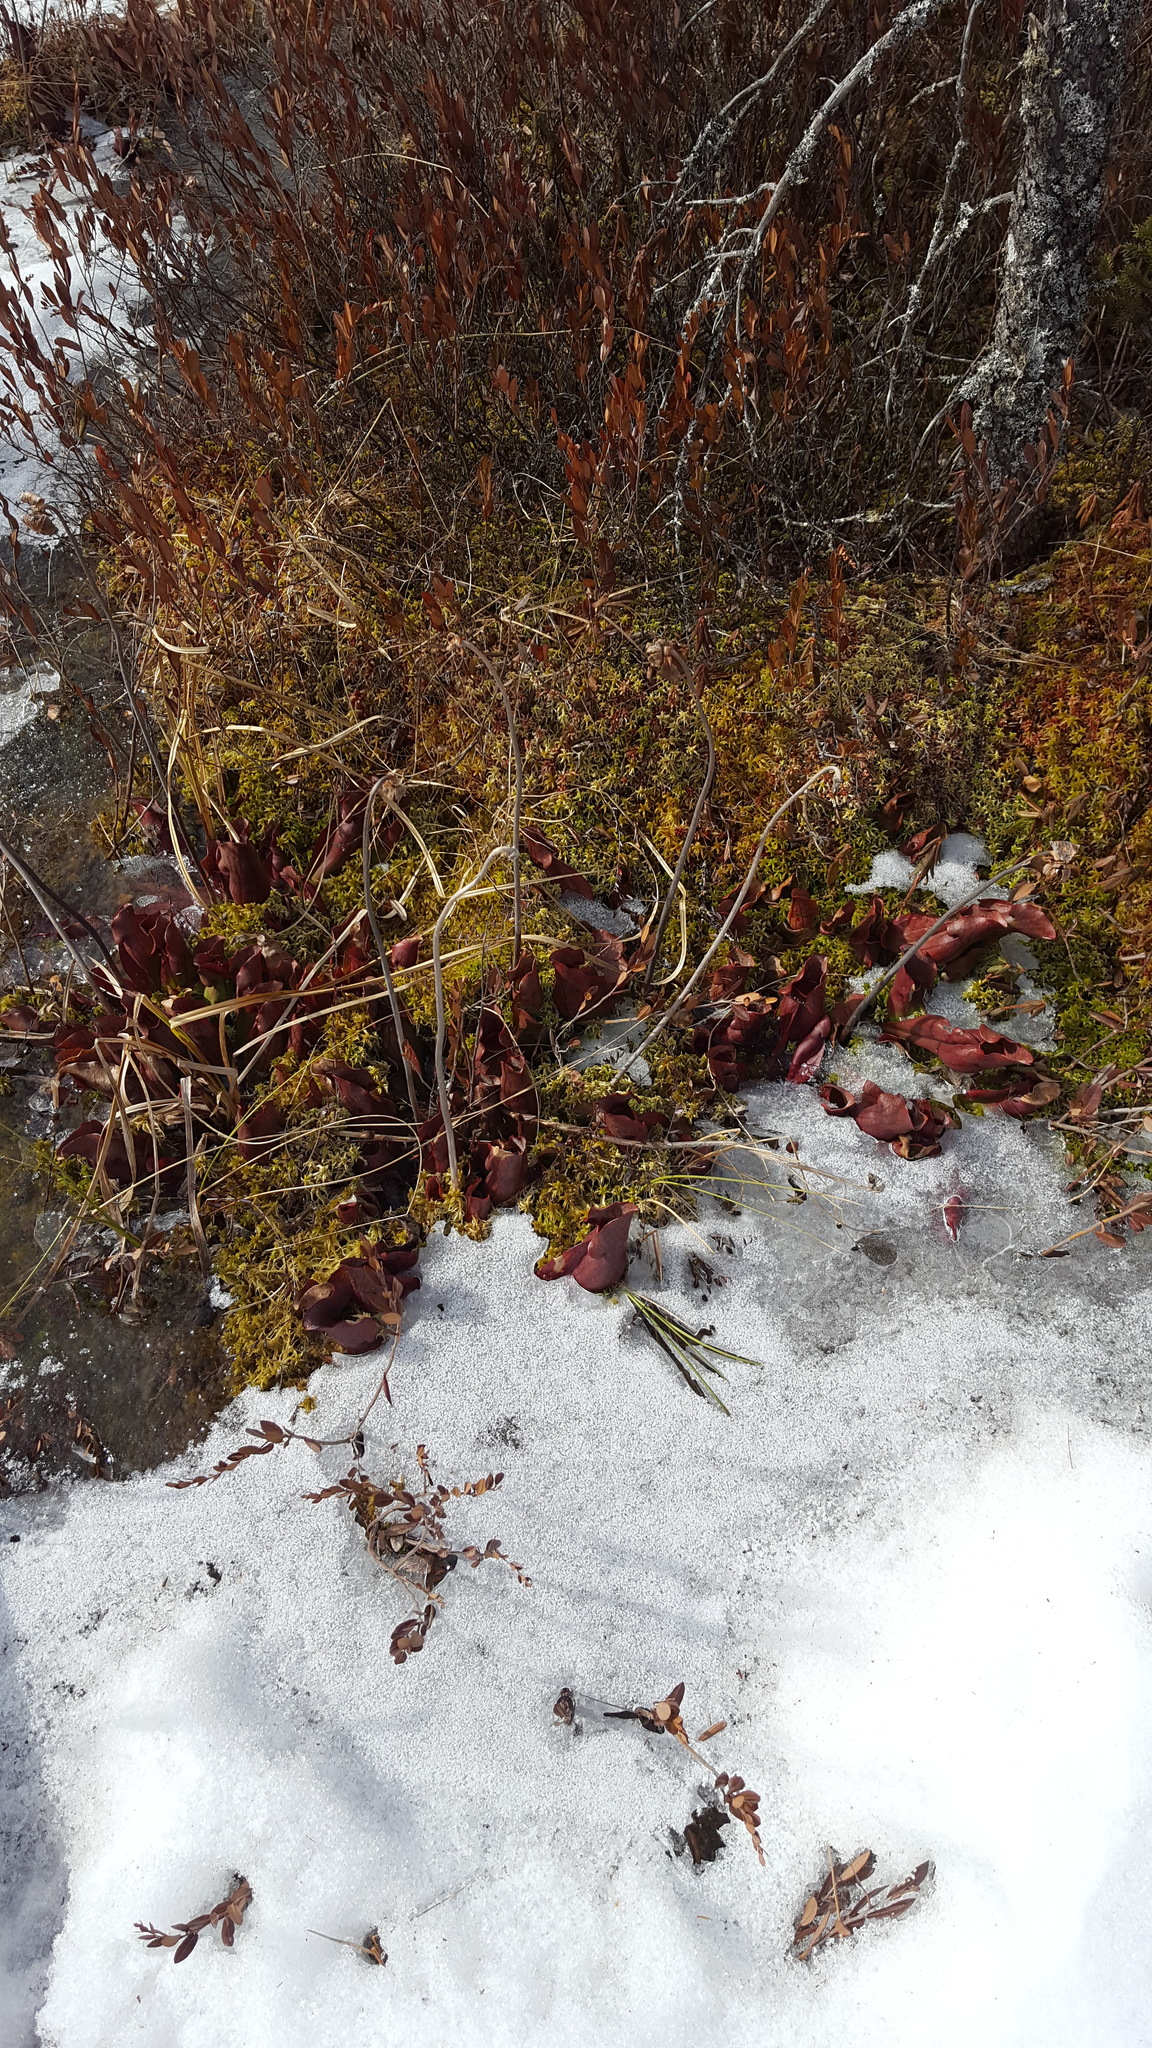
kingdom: Plantae
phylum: Tracheophyta
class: Magnoliopsida
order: Ericales
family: Sarraceniaceae
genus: Sarracenia
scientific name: Sarracenia purpurea
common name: Pitcherplant
